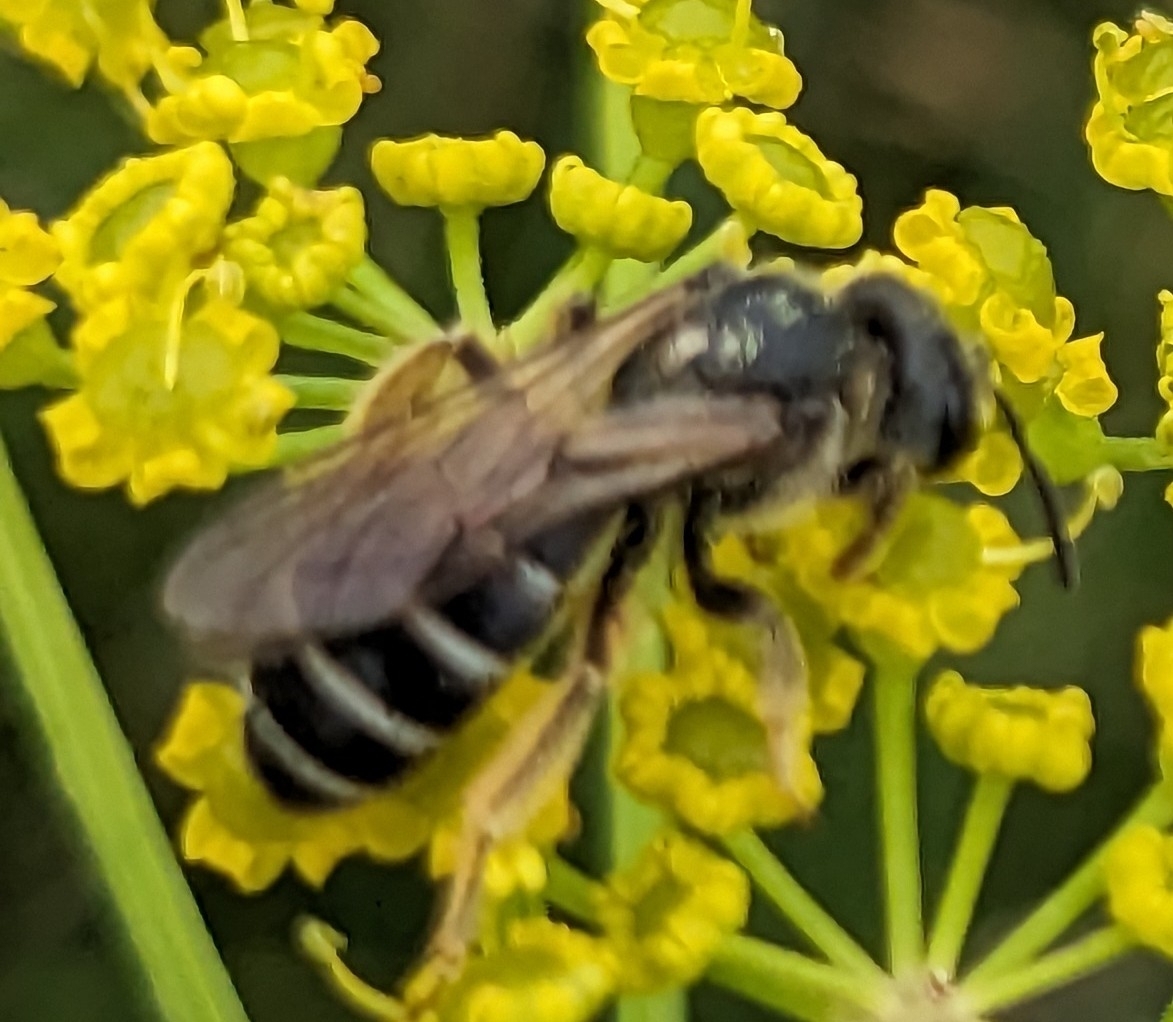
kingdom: Animalia
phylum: Arthropoda
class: Insecta
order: Hymenoptera
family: Halictidae
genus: Halictus
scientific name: Halictus rubicundus
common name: Orange-legged furrow bee
